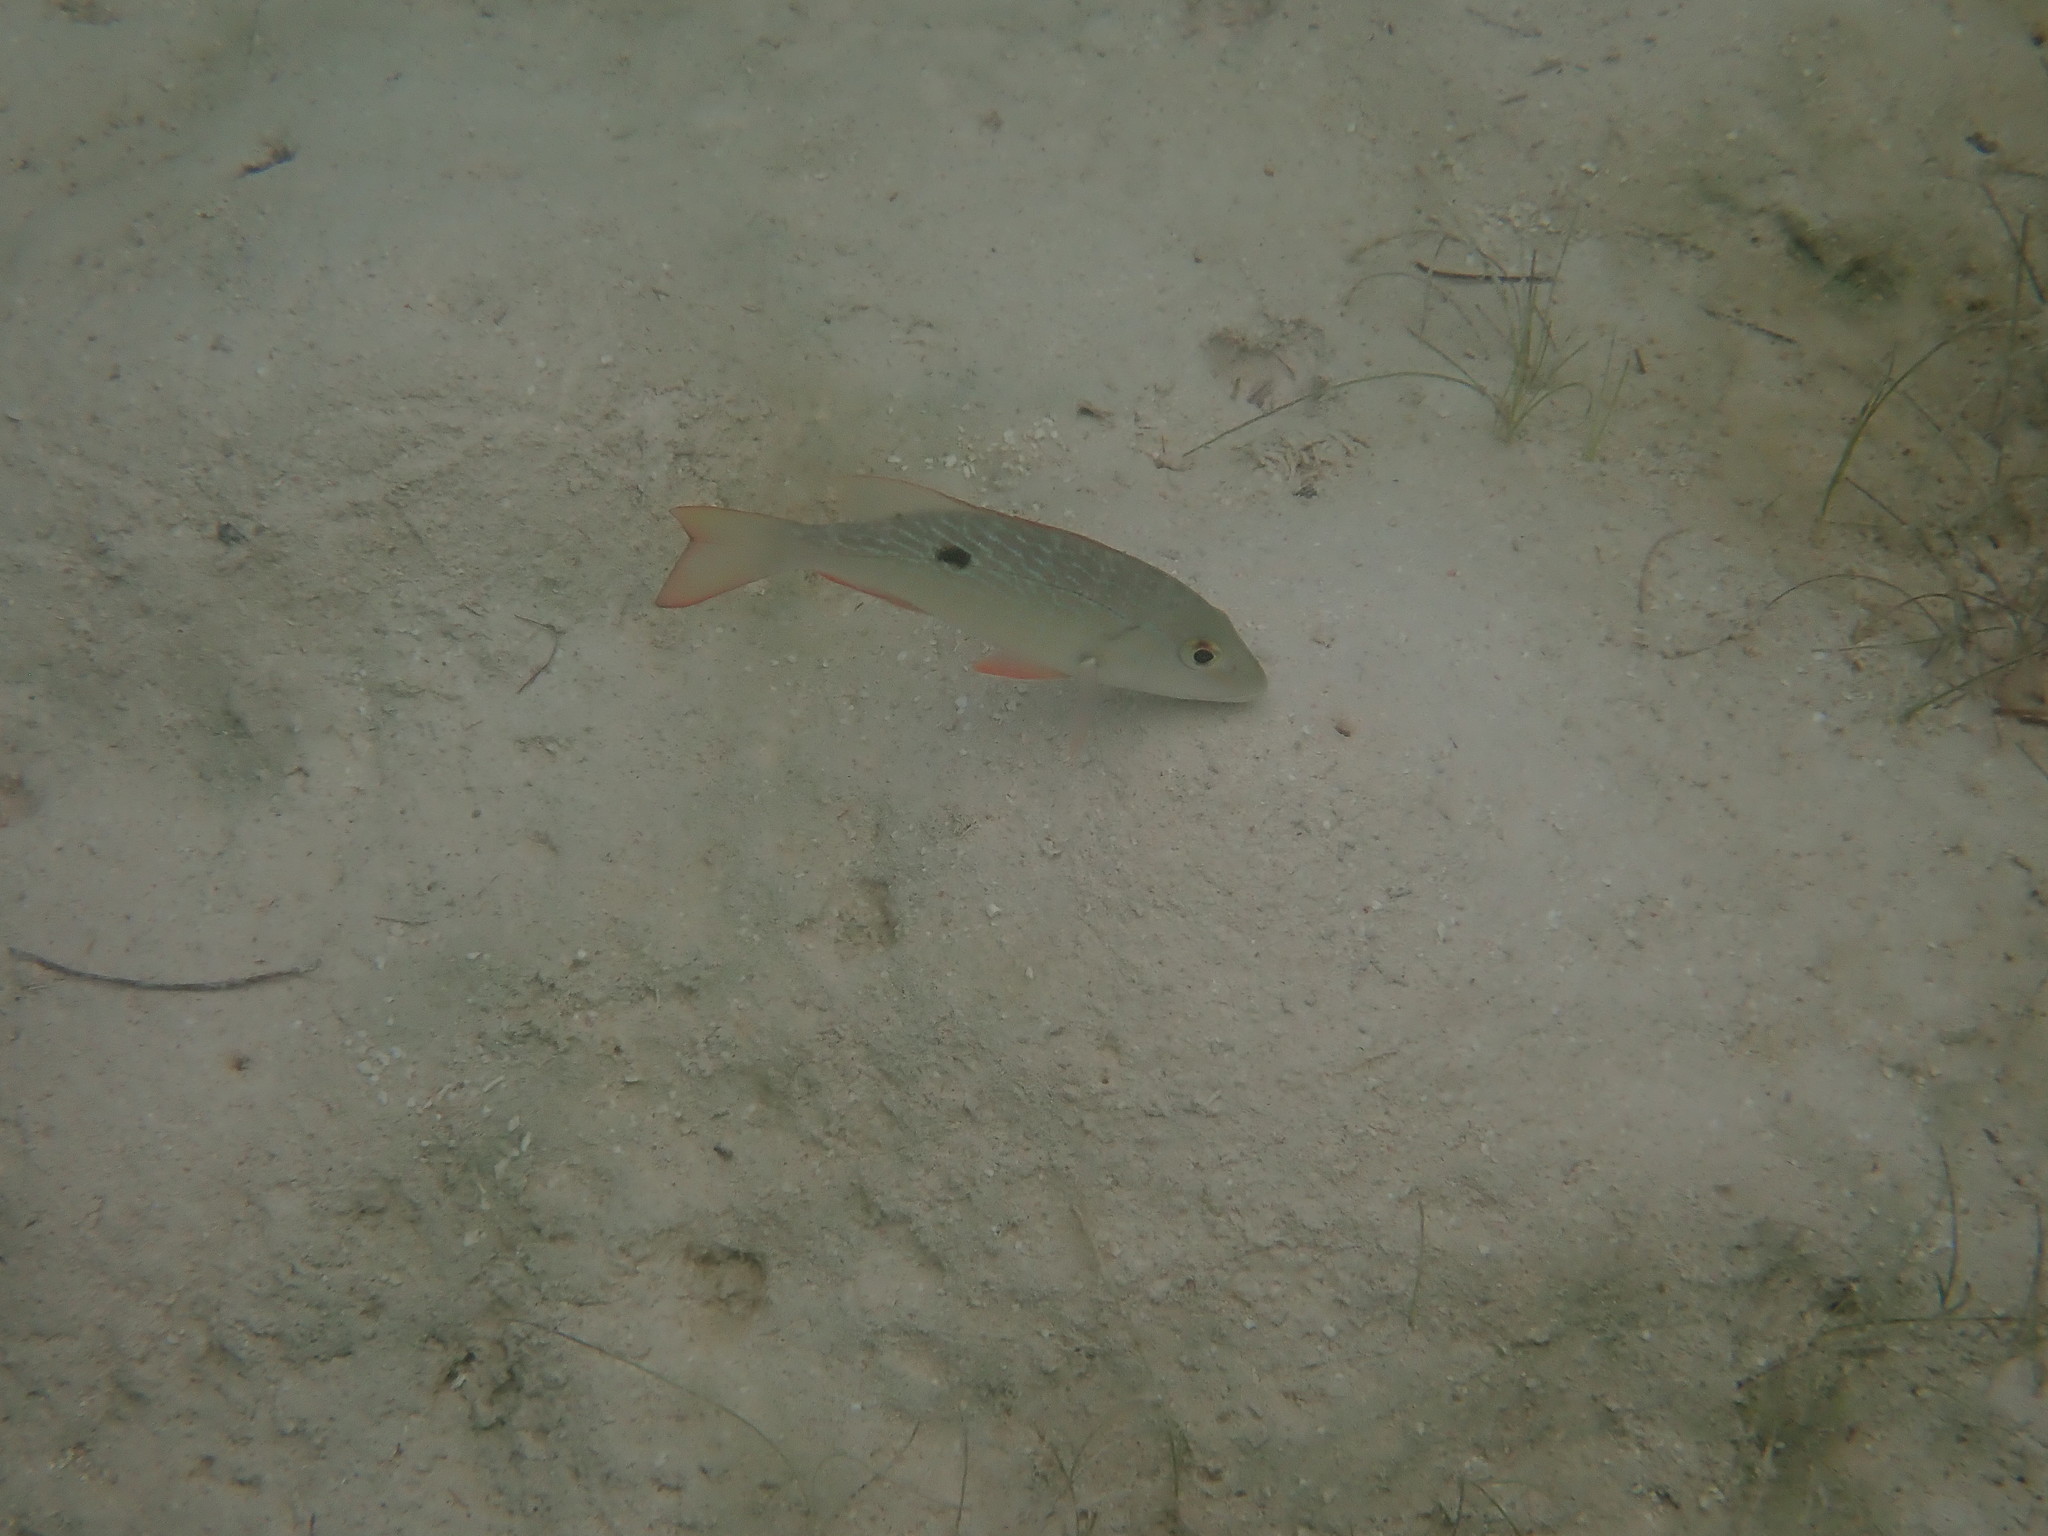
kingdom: Animalia
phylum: Chordata
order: Perciformes
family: Lutjanidae
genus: Lutjanus
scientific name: Lutjanus analis
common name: Mutton snapper
